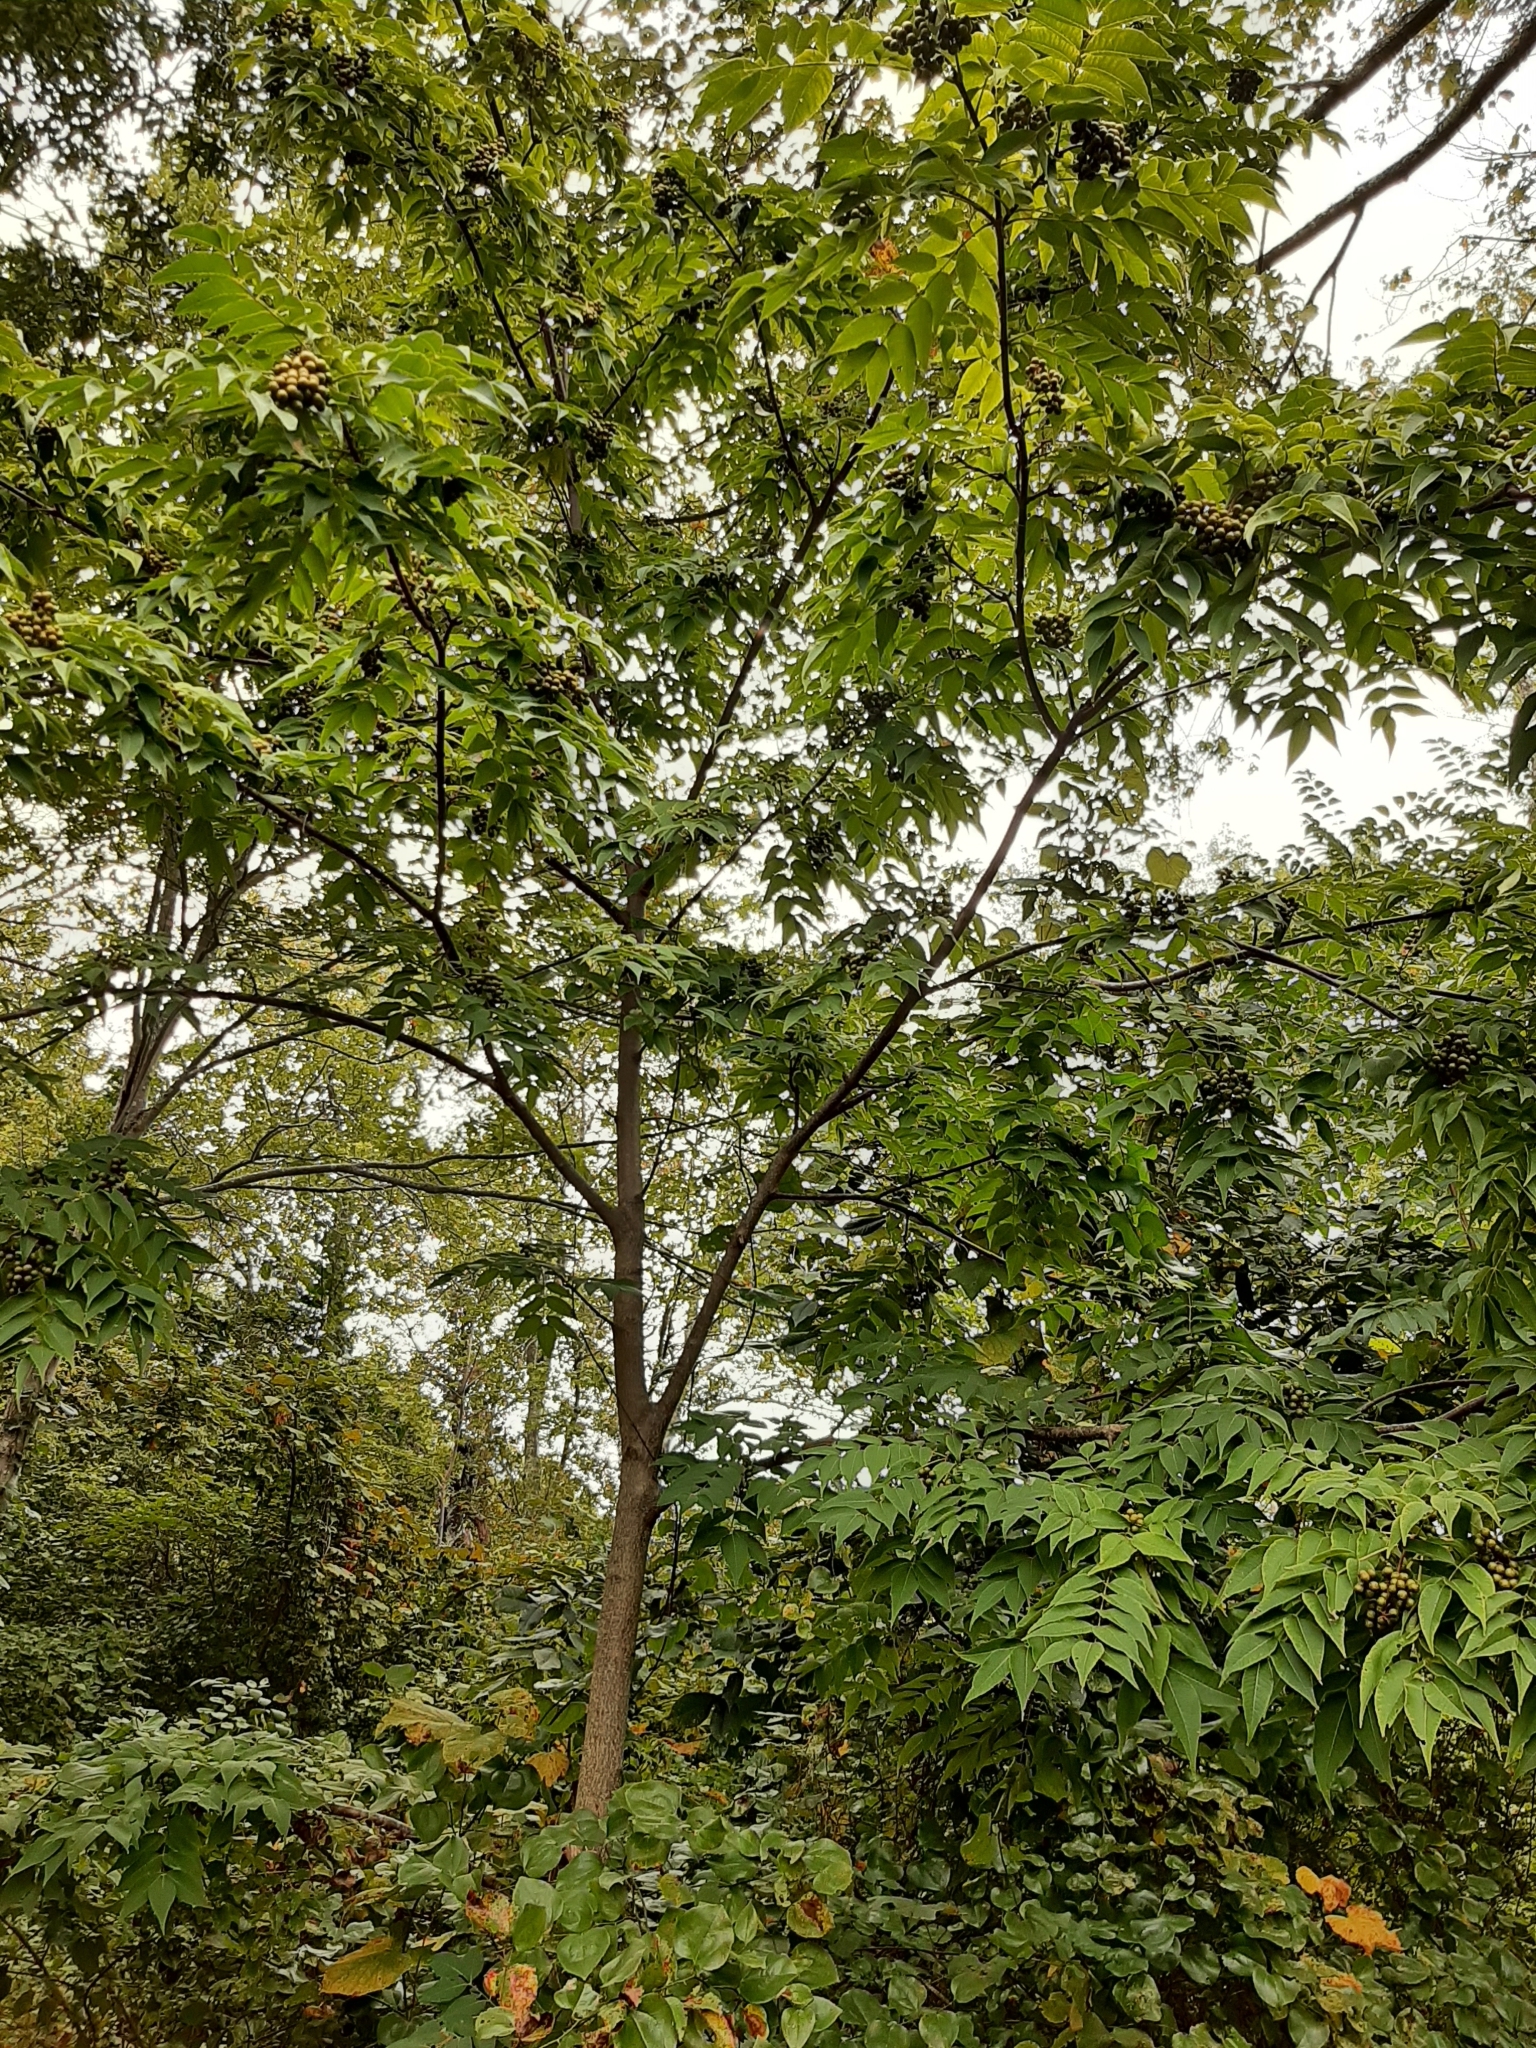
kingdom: Plantae
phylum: Tracheophyta
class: Magnoliopsida
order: Sapindales
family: Rutaceae
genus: Phellodendron
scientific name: Phellodendron amurense
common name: Amur corktree
